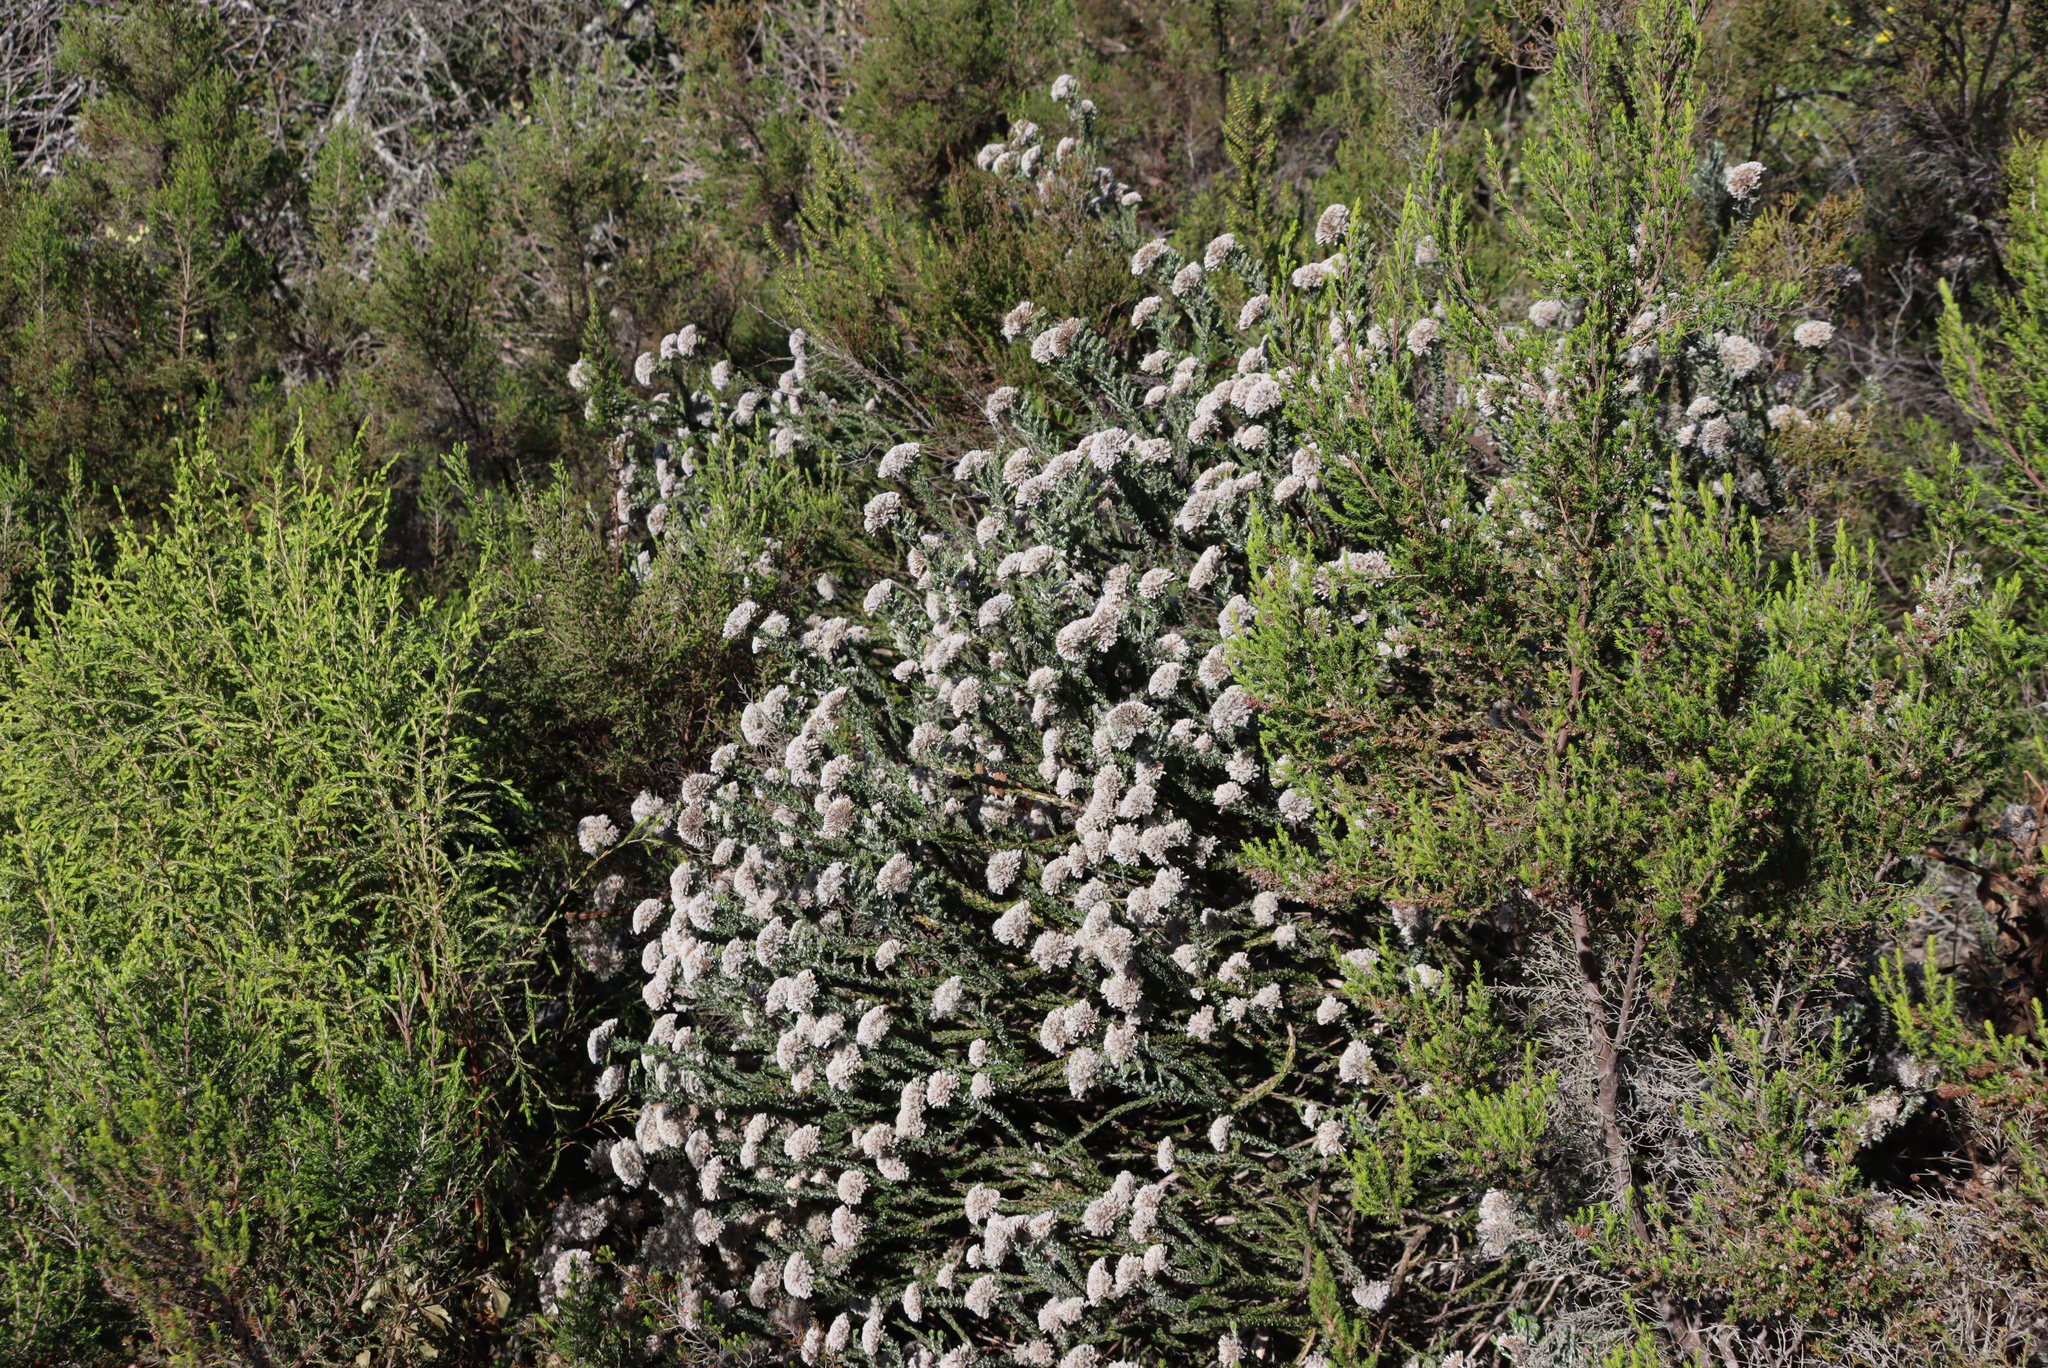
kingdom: Plantae
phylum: Tracheophyta
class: Magnoliopsida
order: Asterales
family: Asteraceae
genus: Metalasia
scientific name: Metalasia pungens
